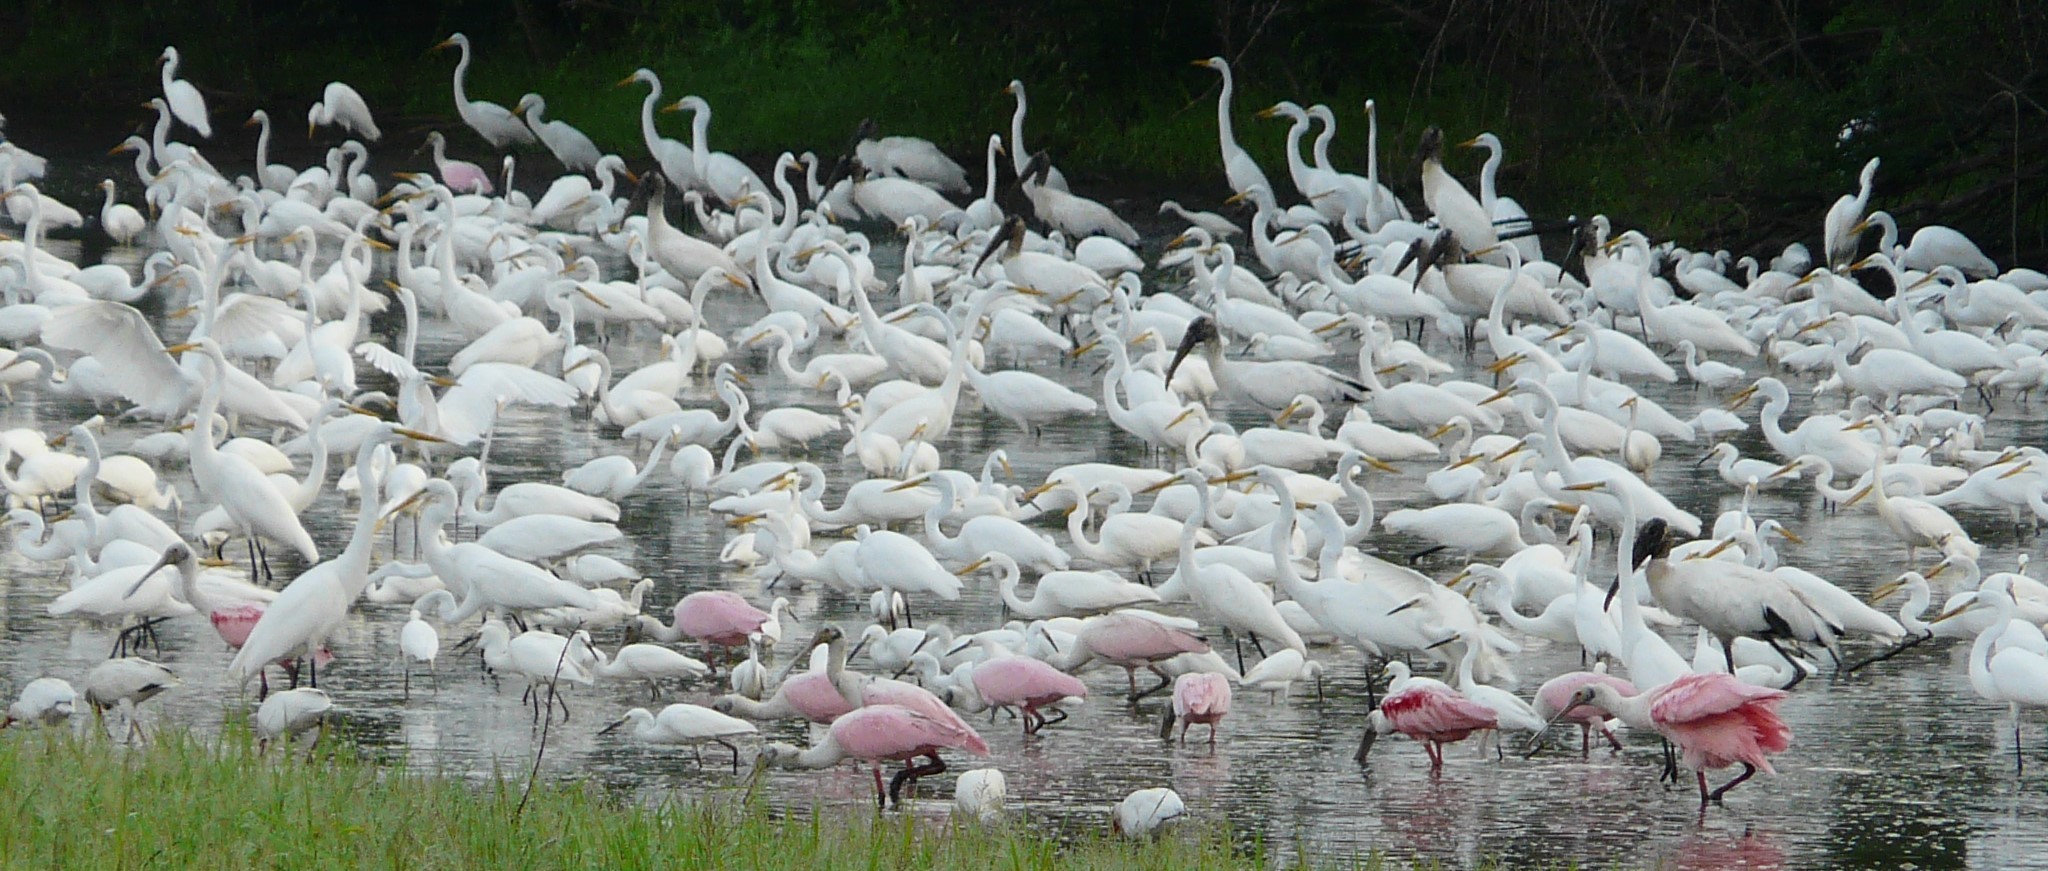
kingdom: Animalia
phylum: Chordata
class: Aves
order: Pelecaniformes
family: Threskiornithidae
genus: Platalea
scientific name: Platalea ajaja
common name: Roseate spoonbill
